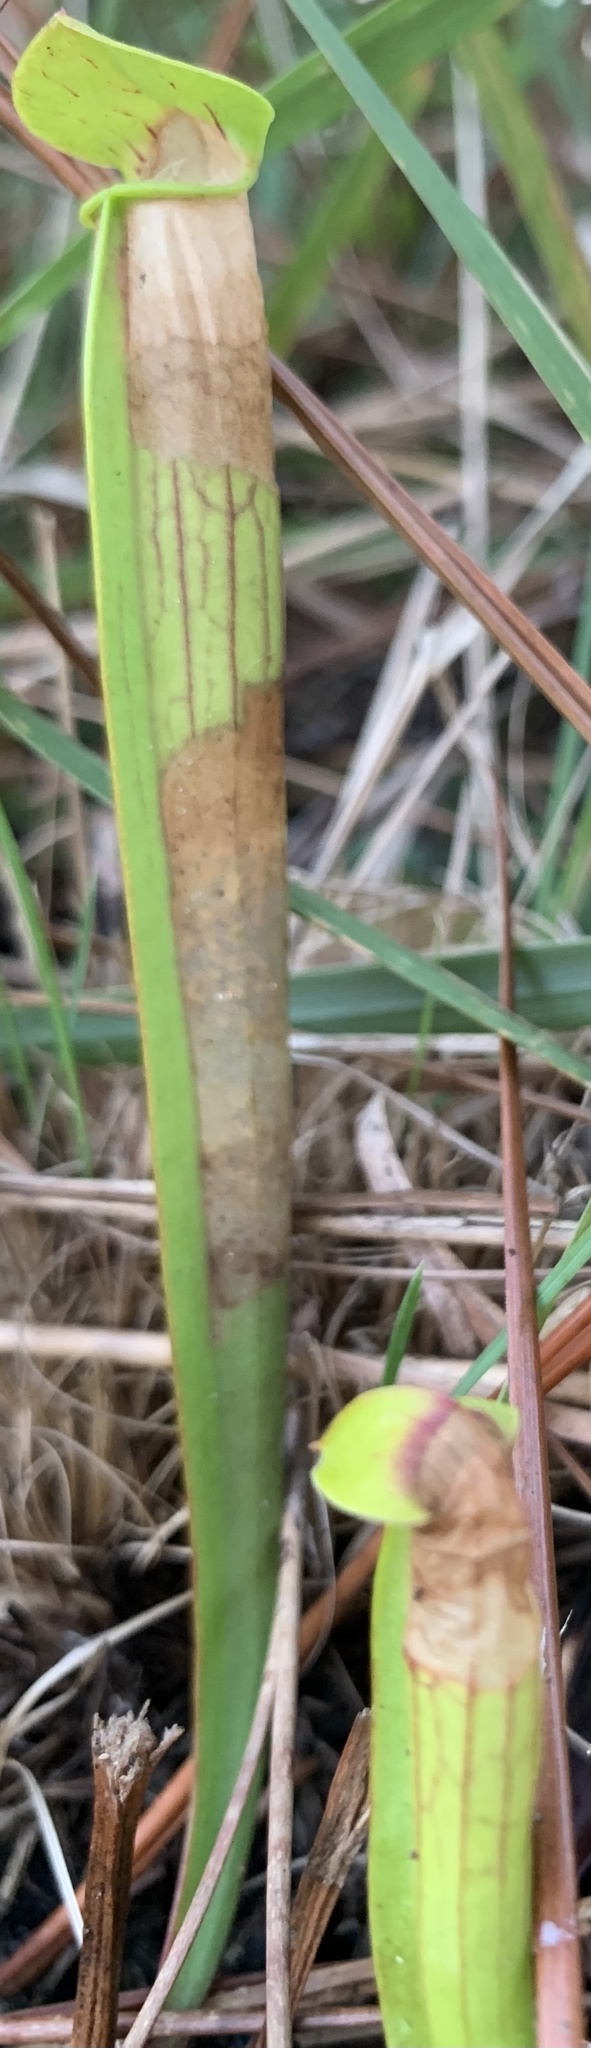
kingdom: Plantae
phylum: Tracheophyta
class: Magnoliopsida
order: Ericales
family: Sarraceniaceae
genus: Sarracenia
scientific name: Sarracenia alata
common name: Yellow trumpets
